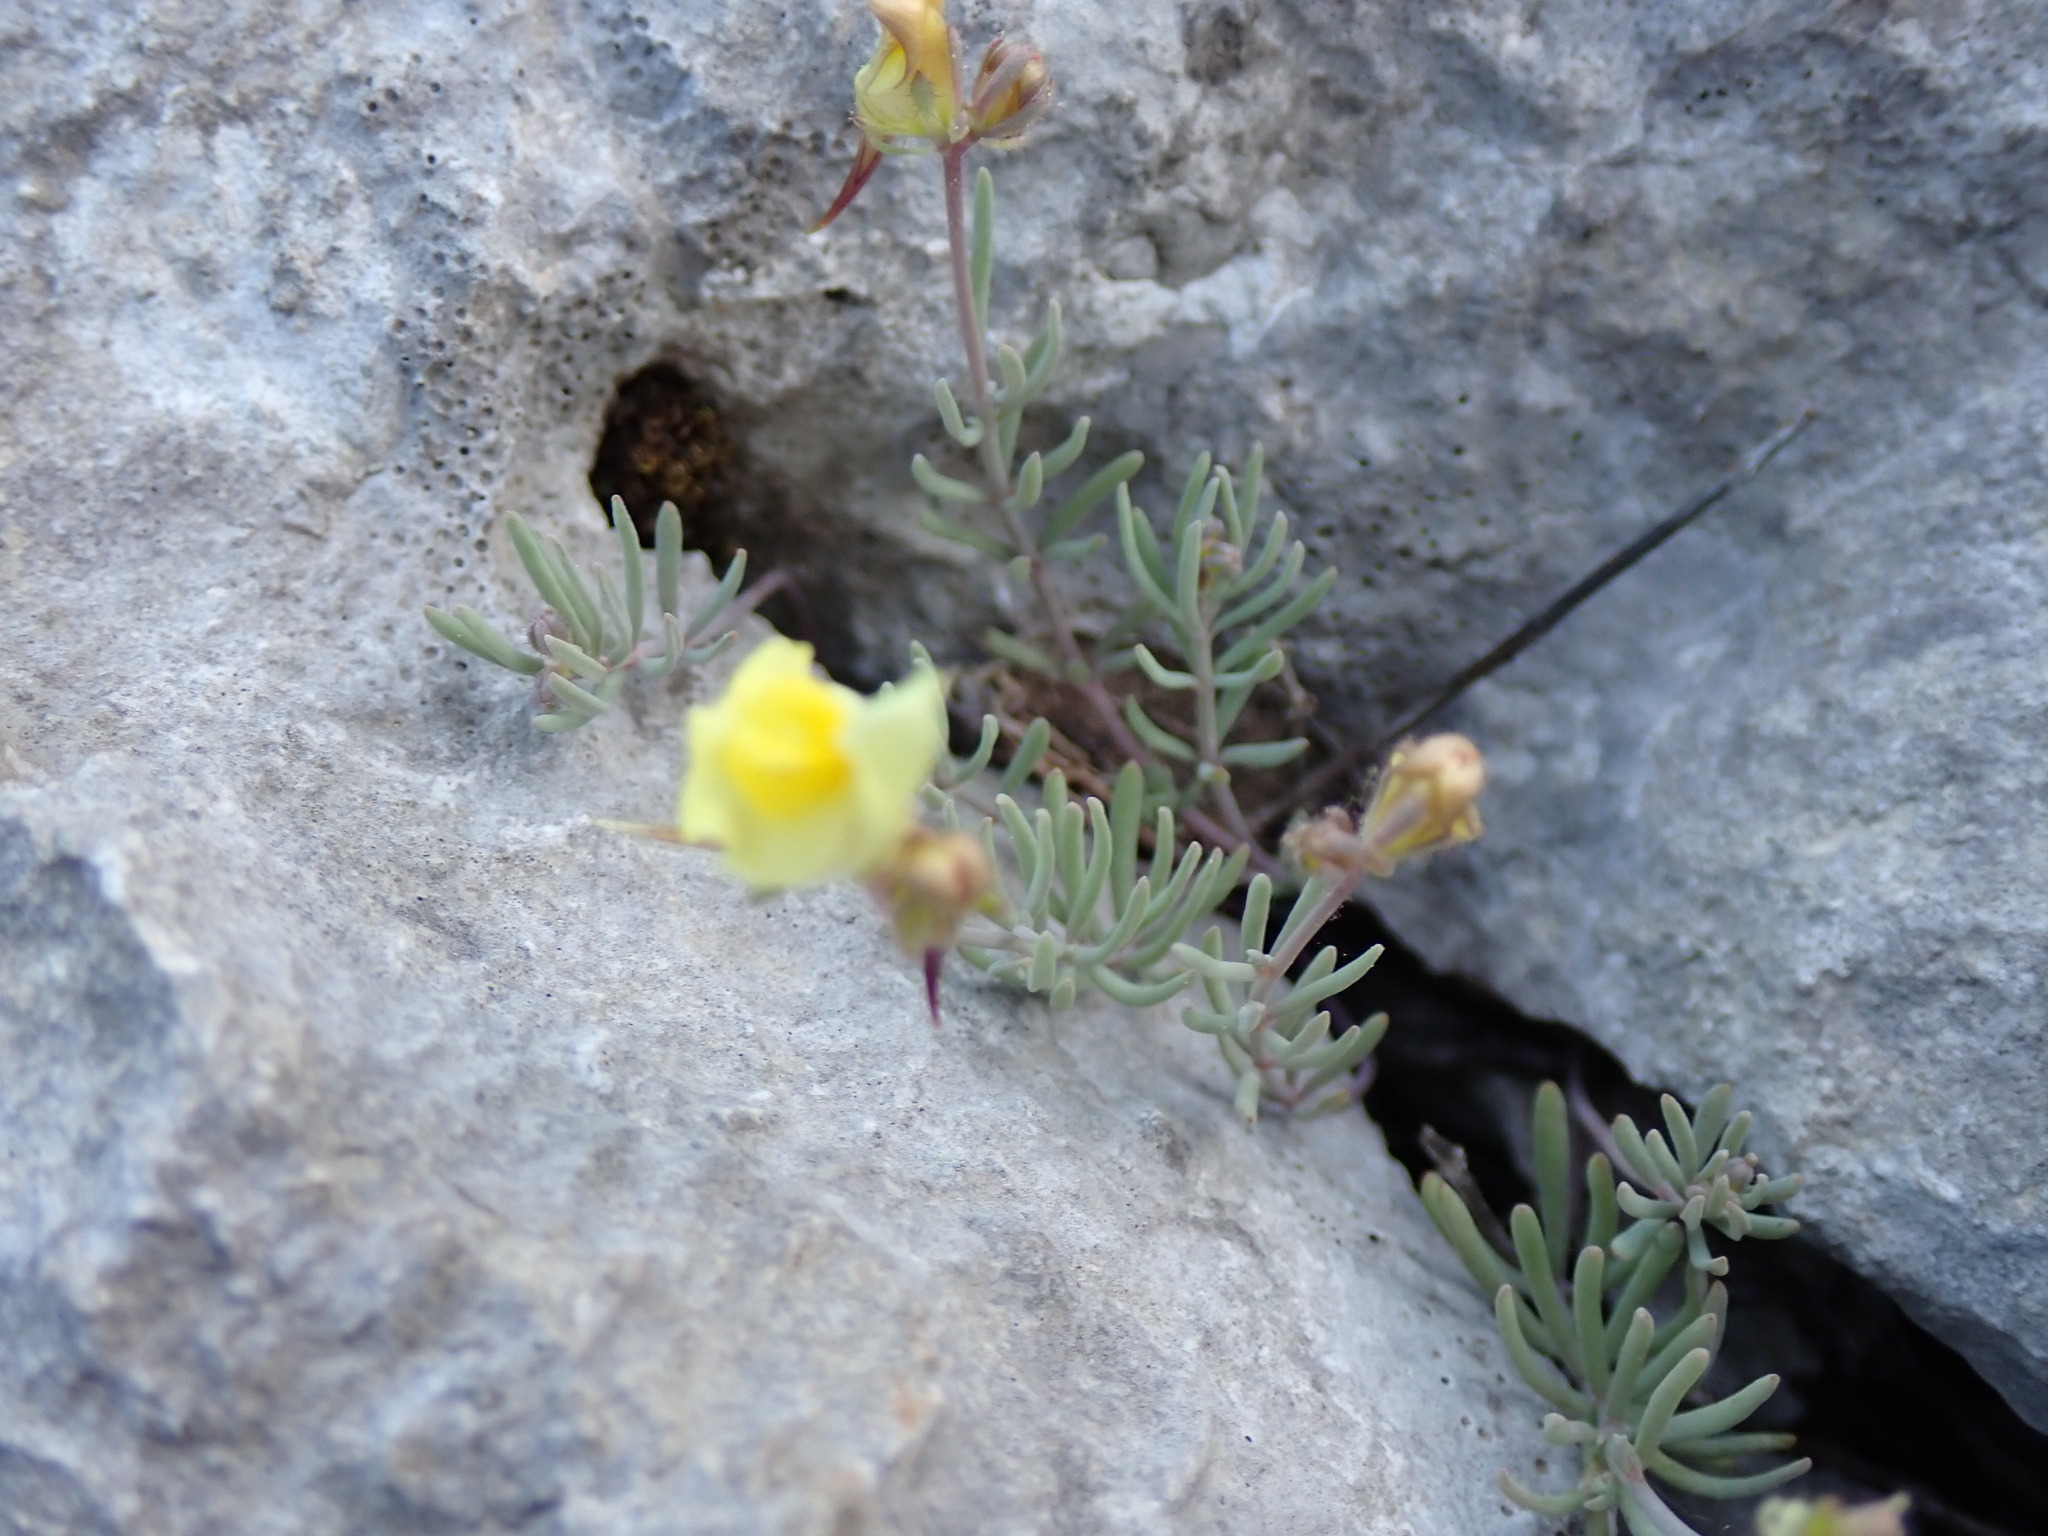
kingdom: Plantae
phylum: Tracheophyta
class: Magnoliopsida
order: Lamiales
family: Plantaginaceae
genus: Linaria
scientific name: Linaria supina
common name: Prostrate toadflax
